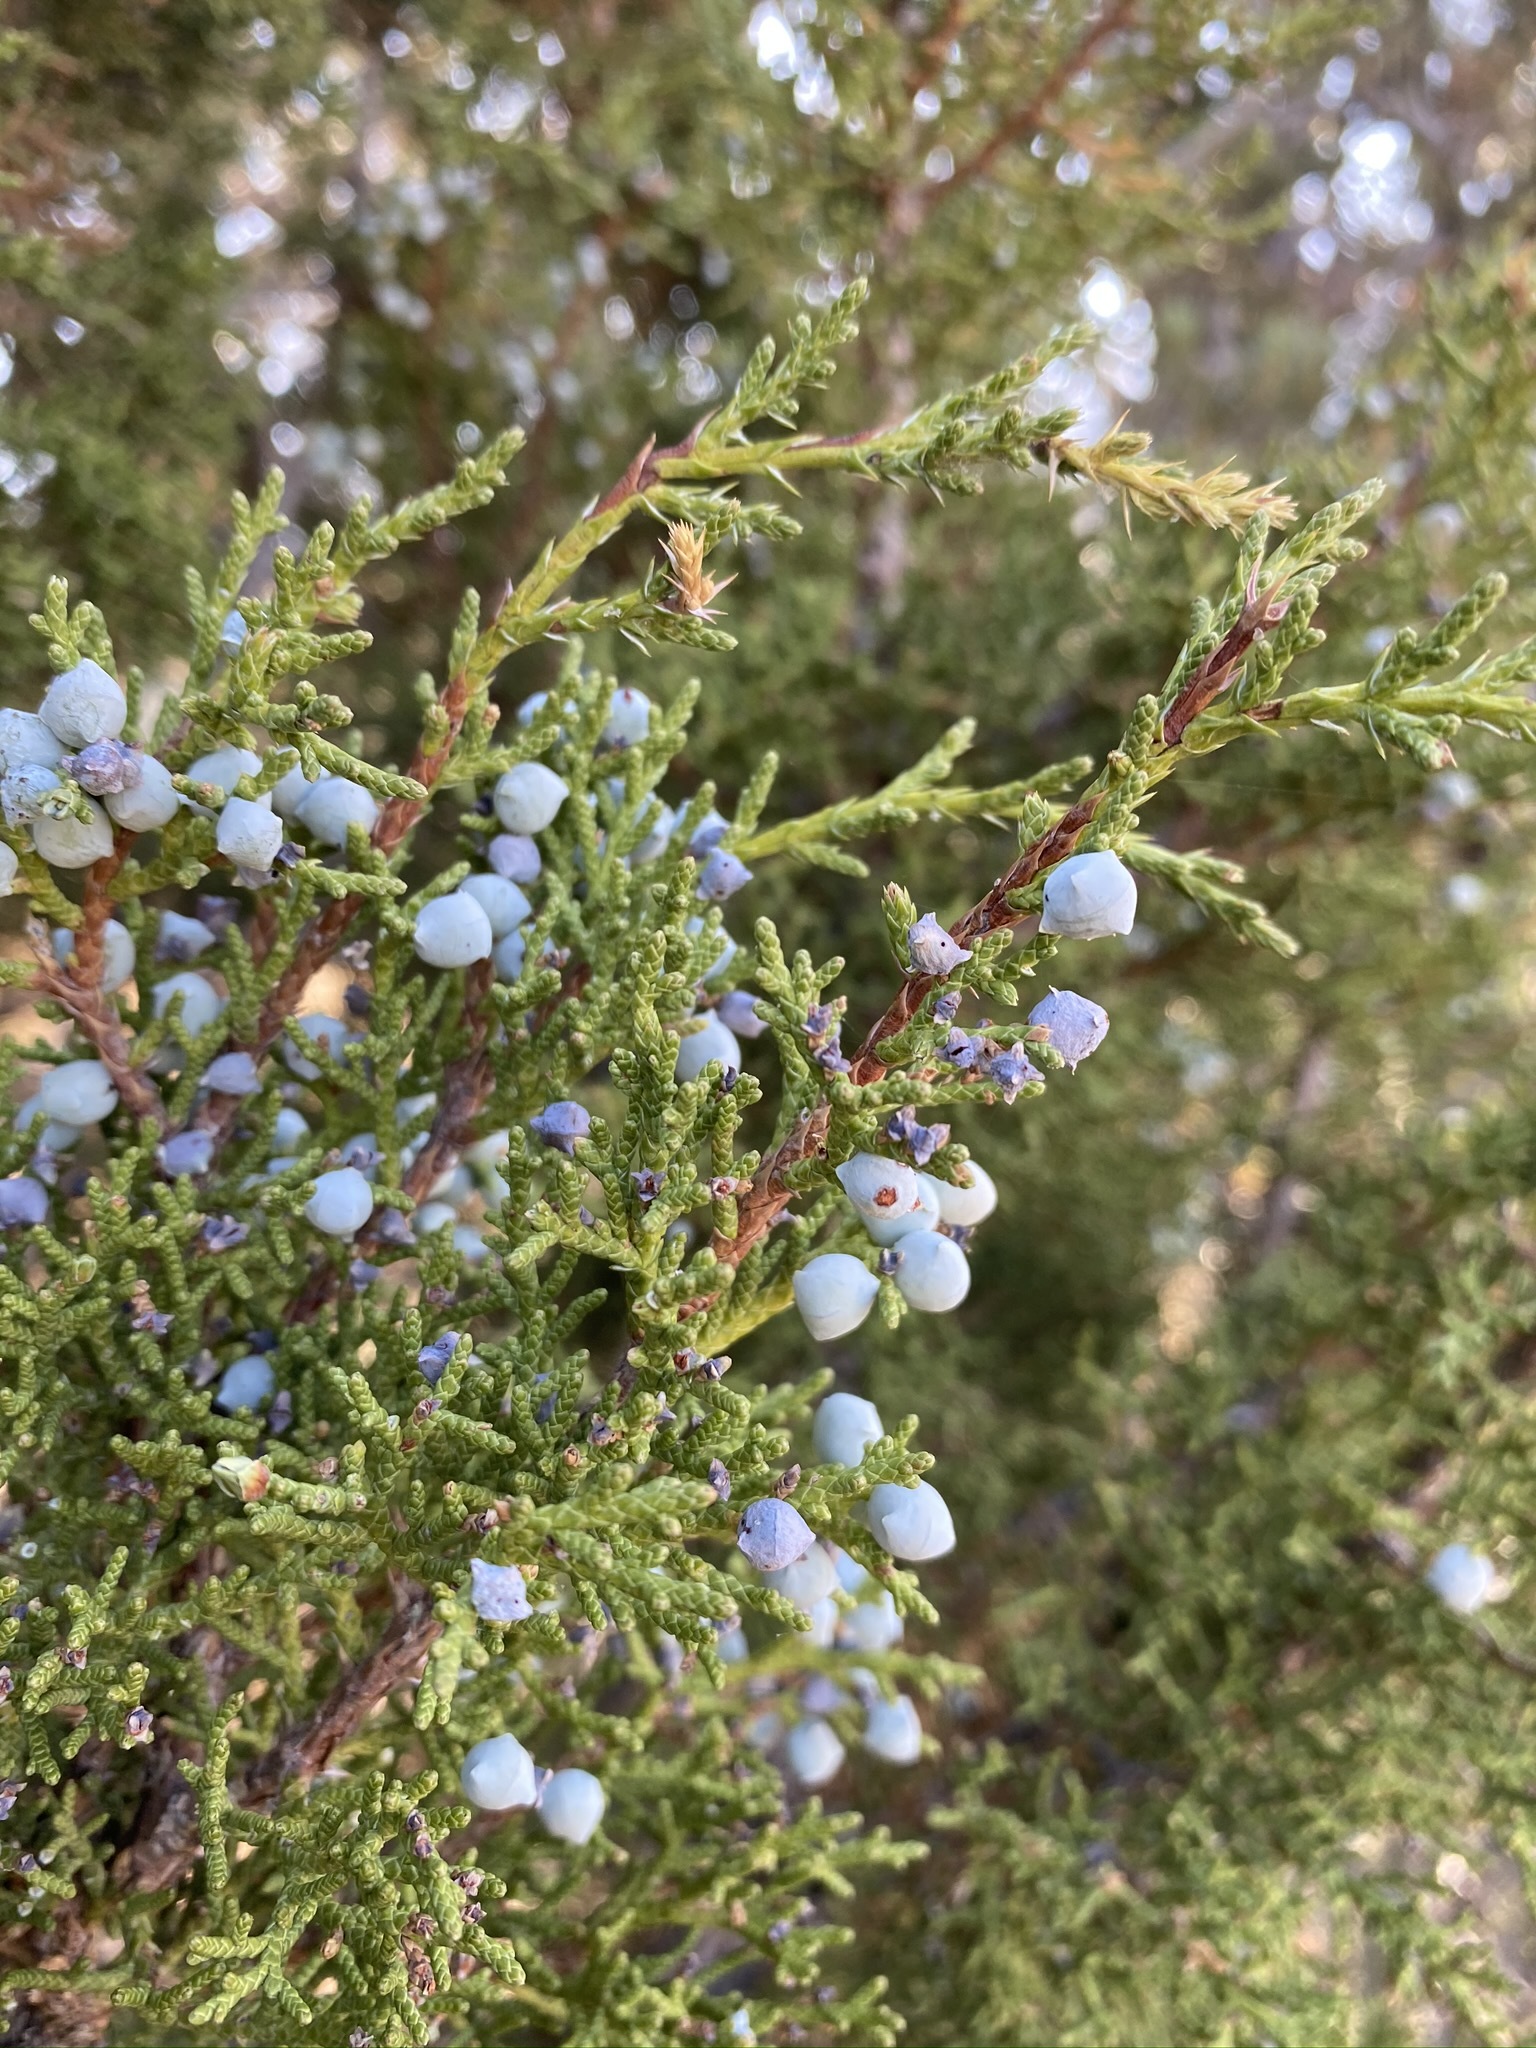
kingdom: Plantae
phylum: Tracheophyta
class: Pinopsida
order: Pinales
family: Cupressaceae
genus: Juniperus
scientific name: Juniperus osteosperma
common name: Utah juniper
